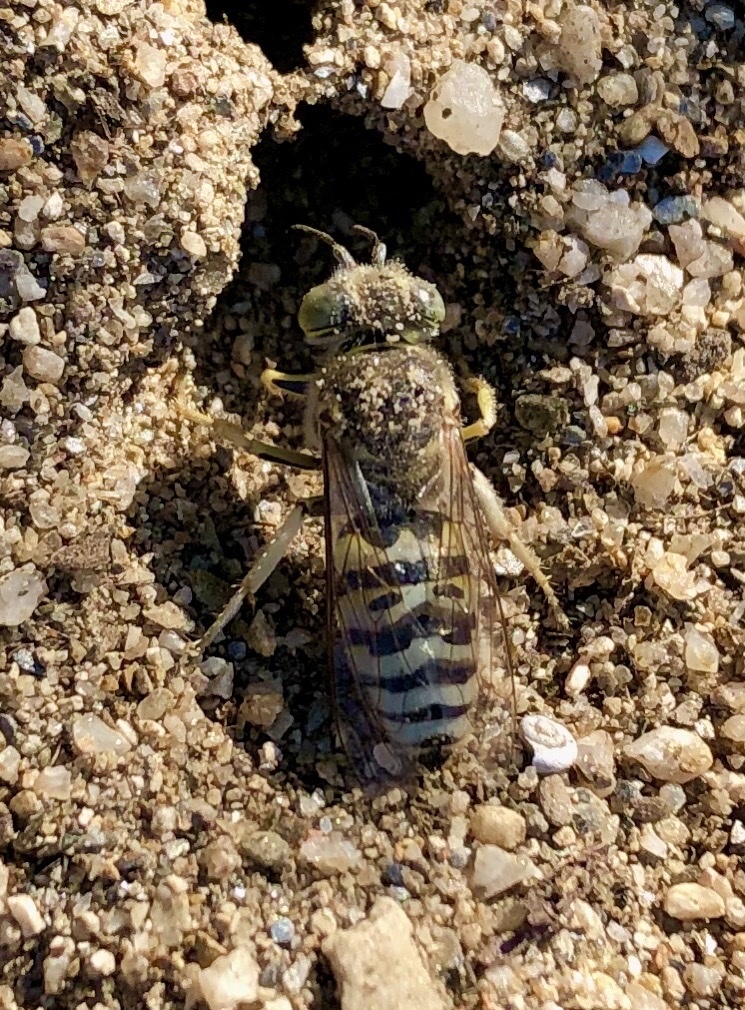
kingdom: Animalia
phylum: Arthropoda
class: Insecta
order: Hymenoptera
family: Crabronidae
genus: Bembix
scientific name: Bembix oculata
